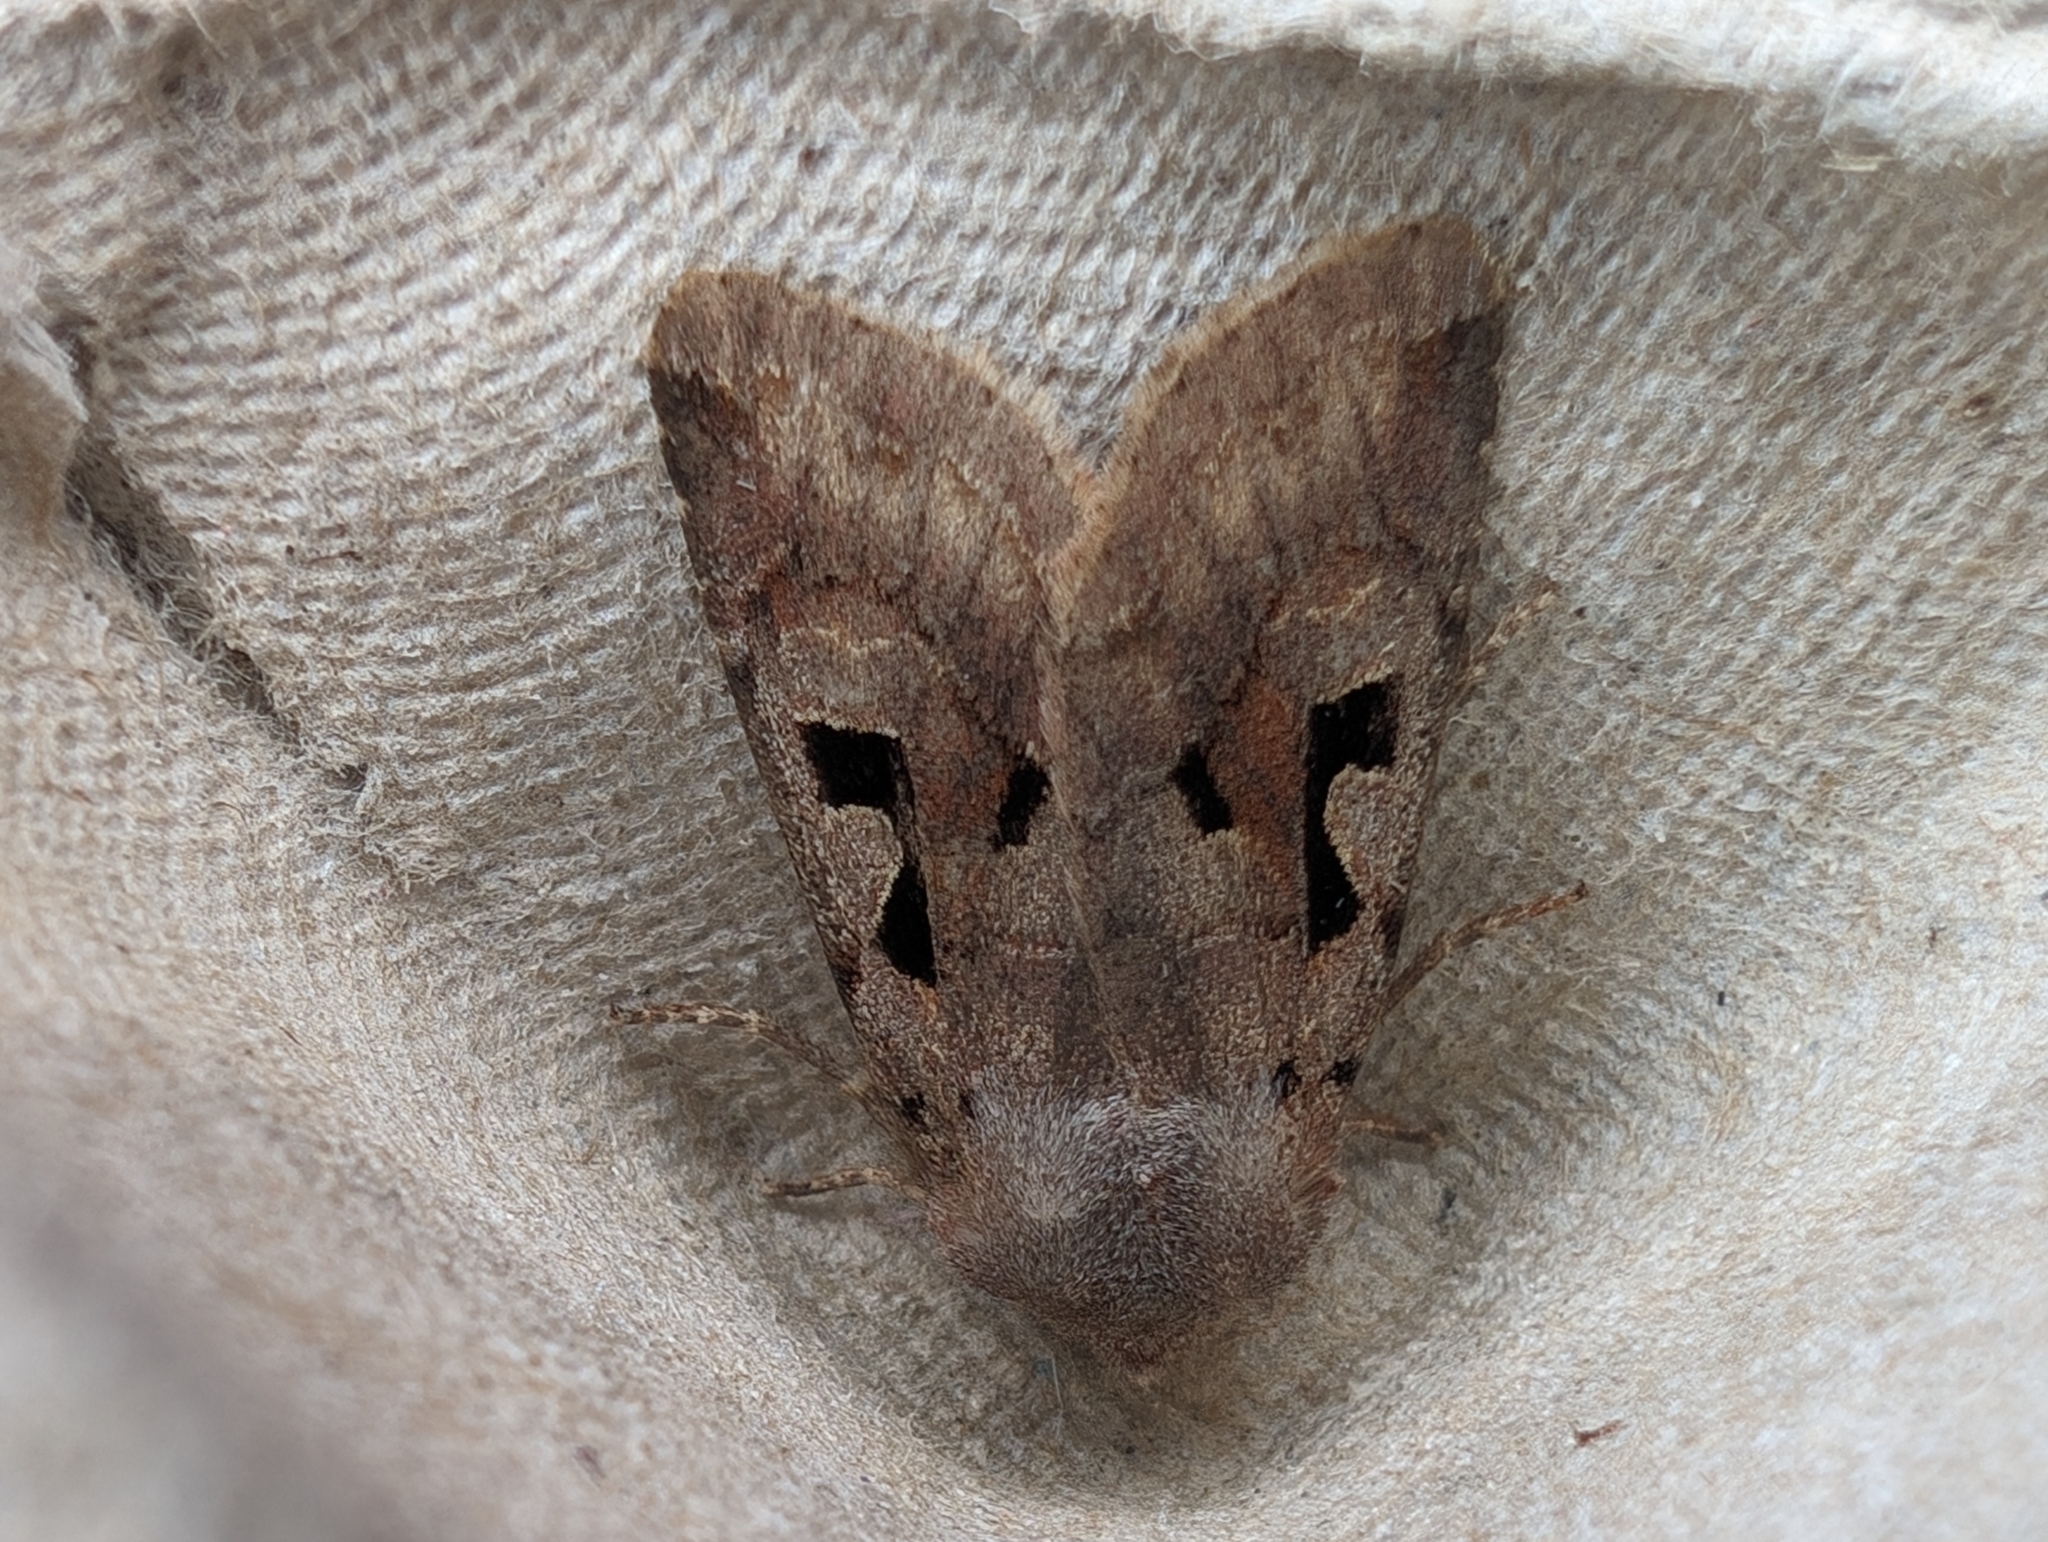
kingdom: Animalia
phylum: Arthropoda
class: Insecta
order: Lepidoptera
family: Noctuidae
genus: Orthosia
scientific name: Orthosia gothica
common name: Hebrew character
